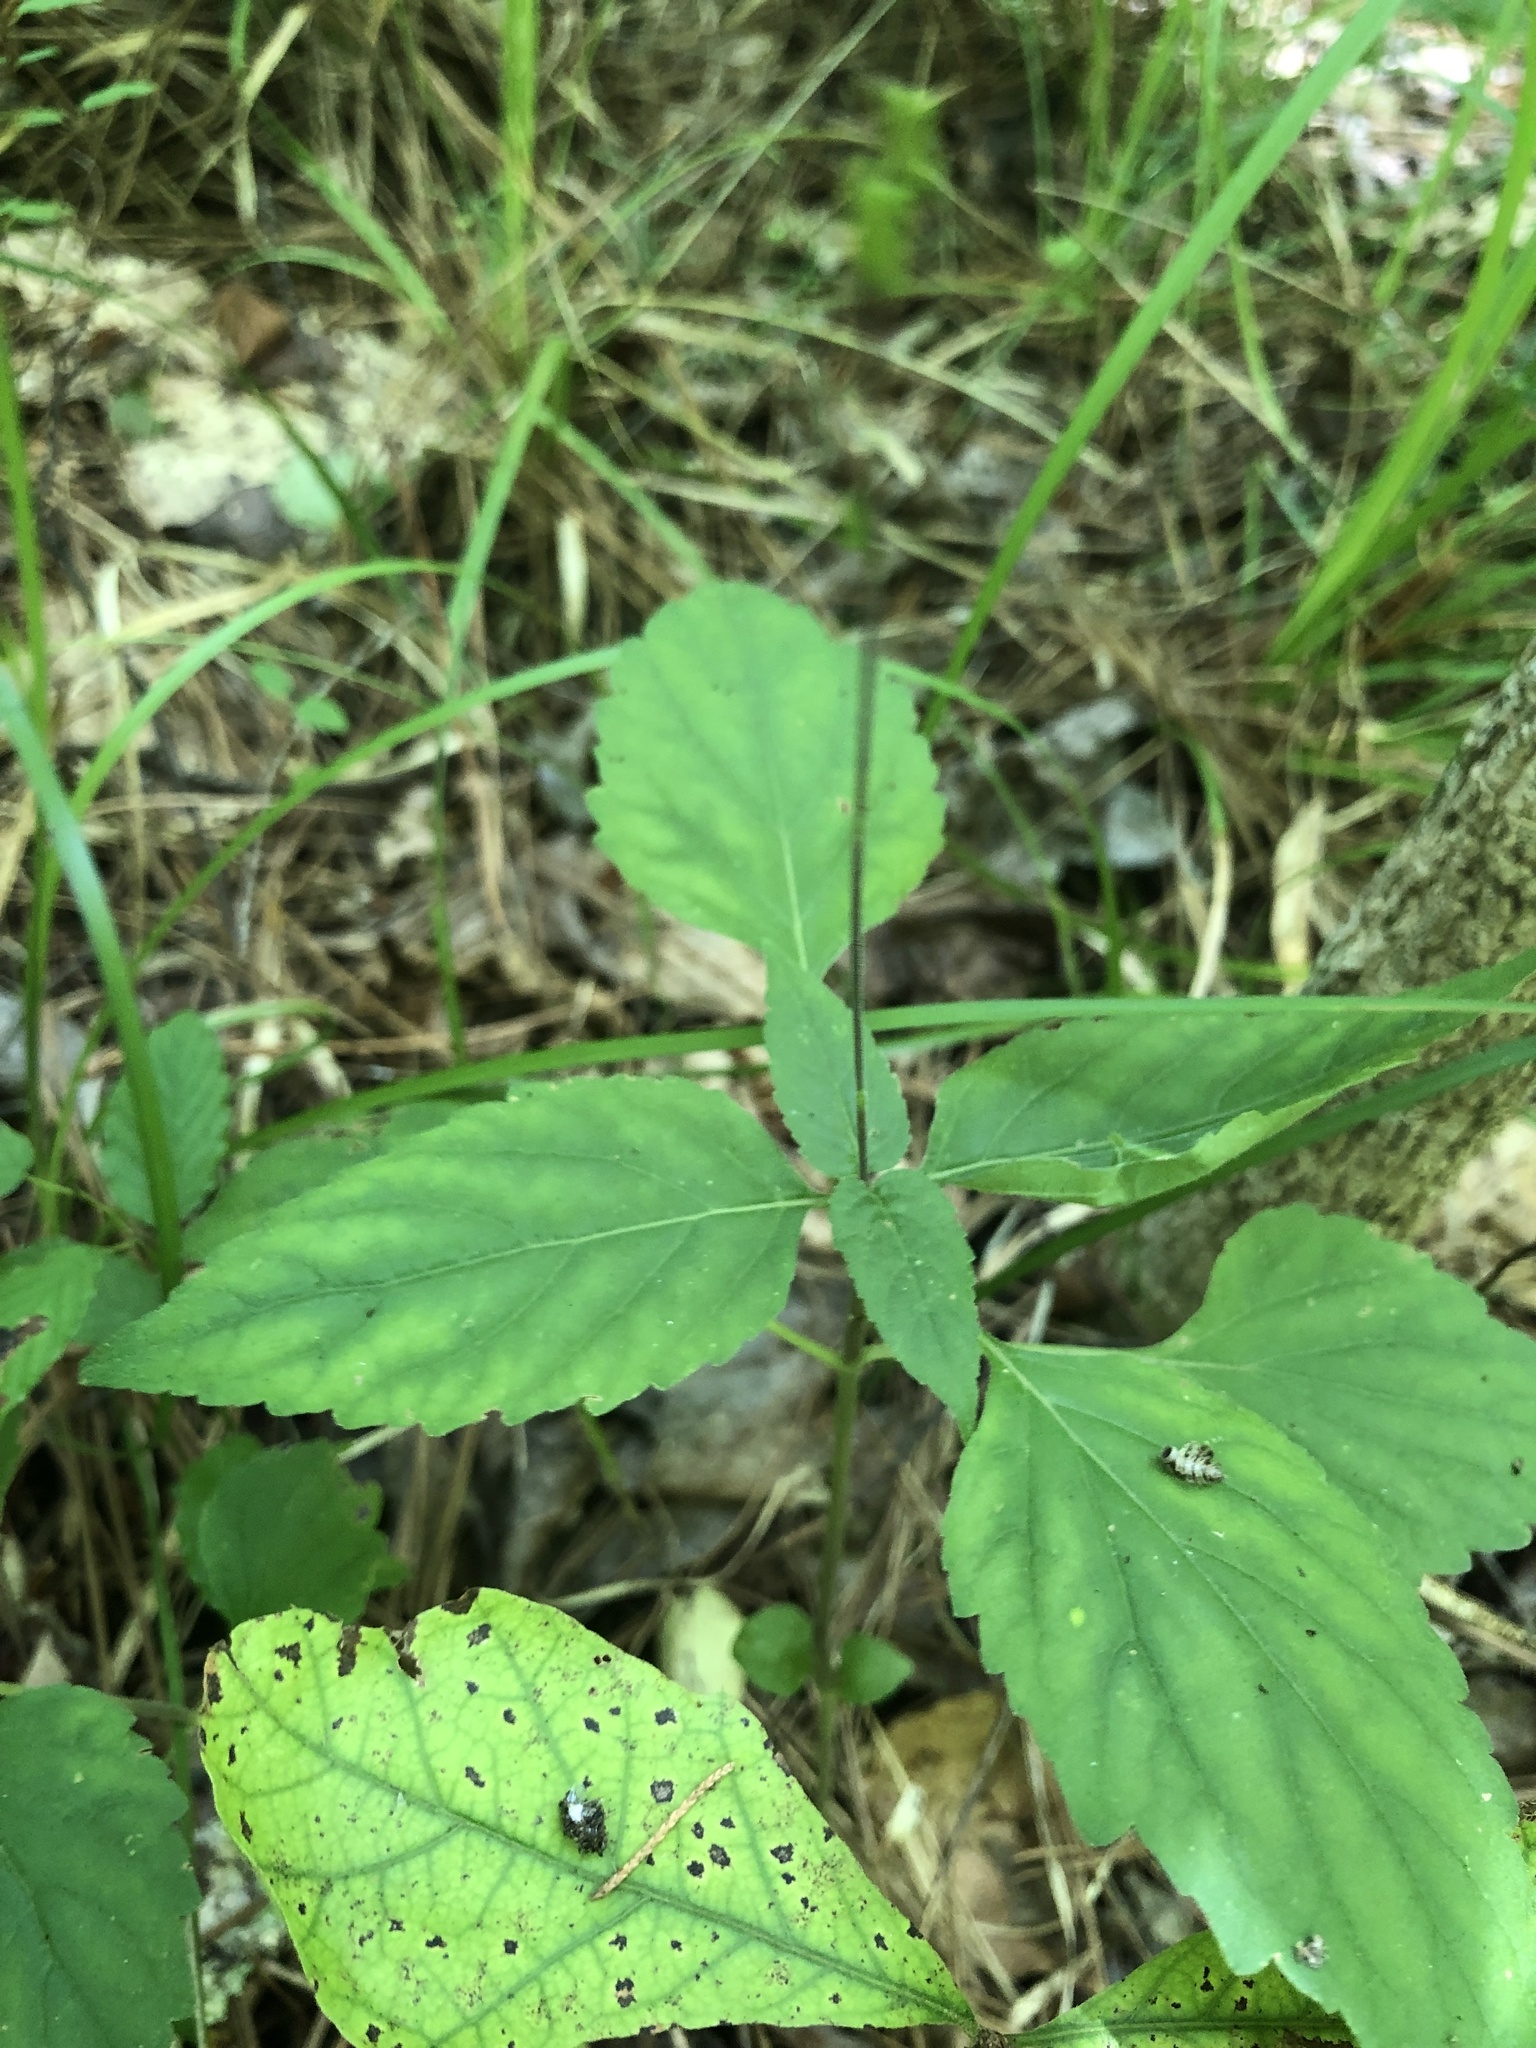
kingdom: Plantae
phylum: Tracheophyta
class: Magnoliopsida
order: Lamiales
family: Phrymaceae
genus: Phryma
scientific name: Phryma leptostachya
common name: American lopseed
